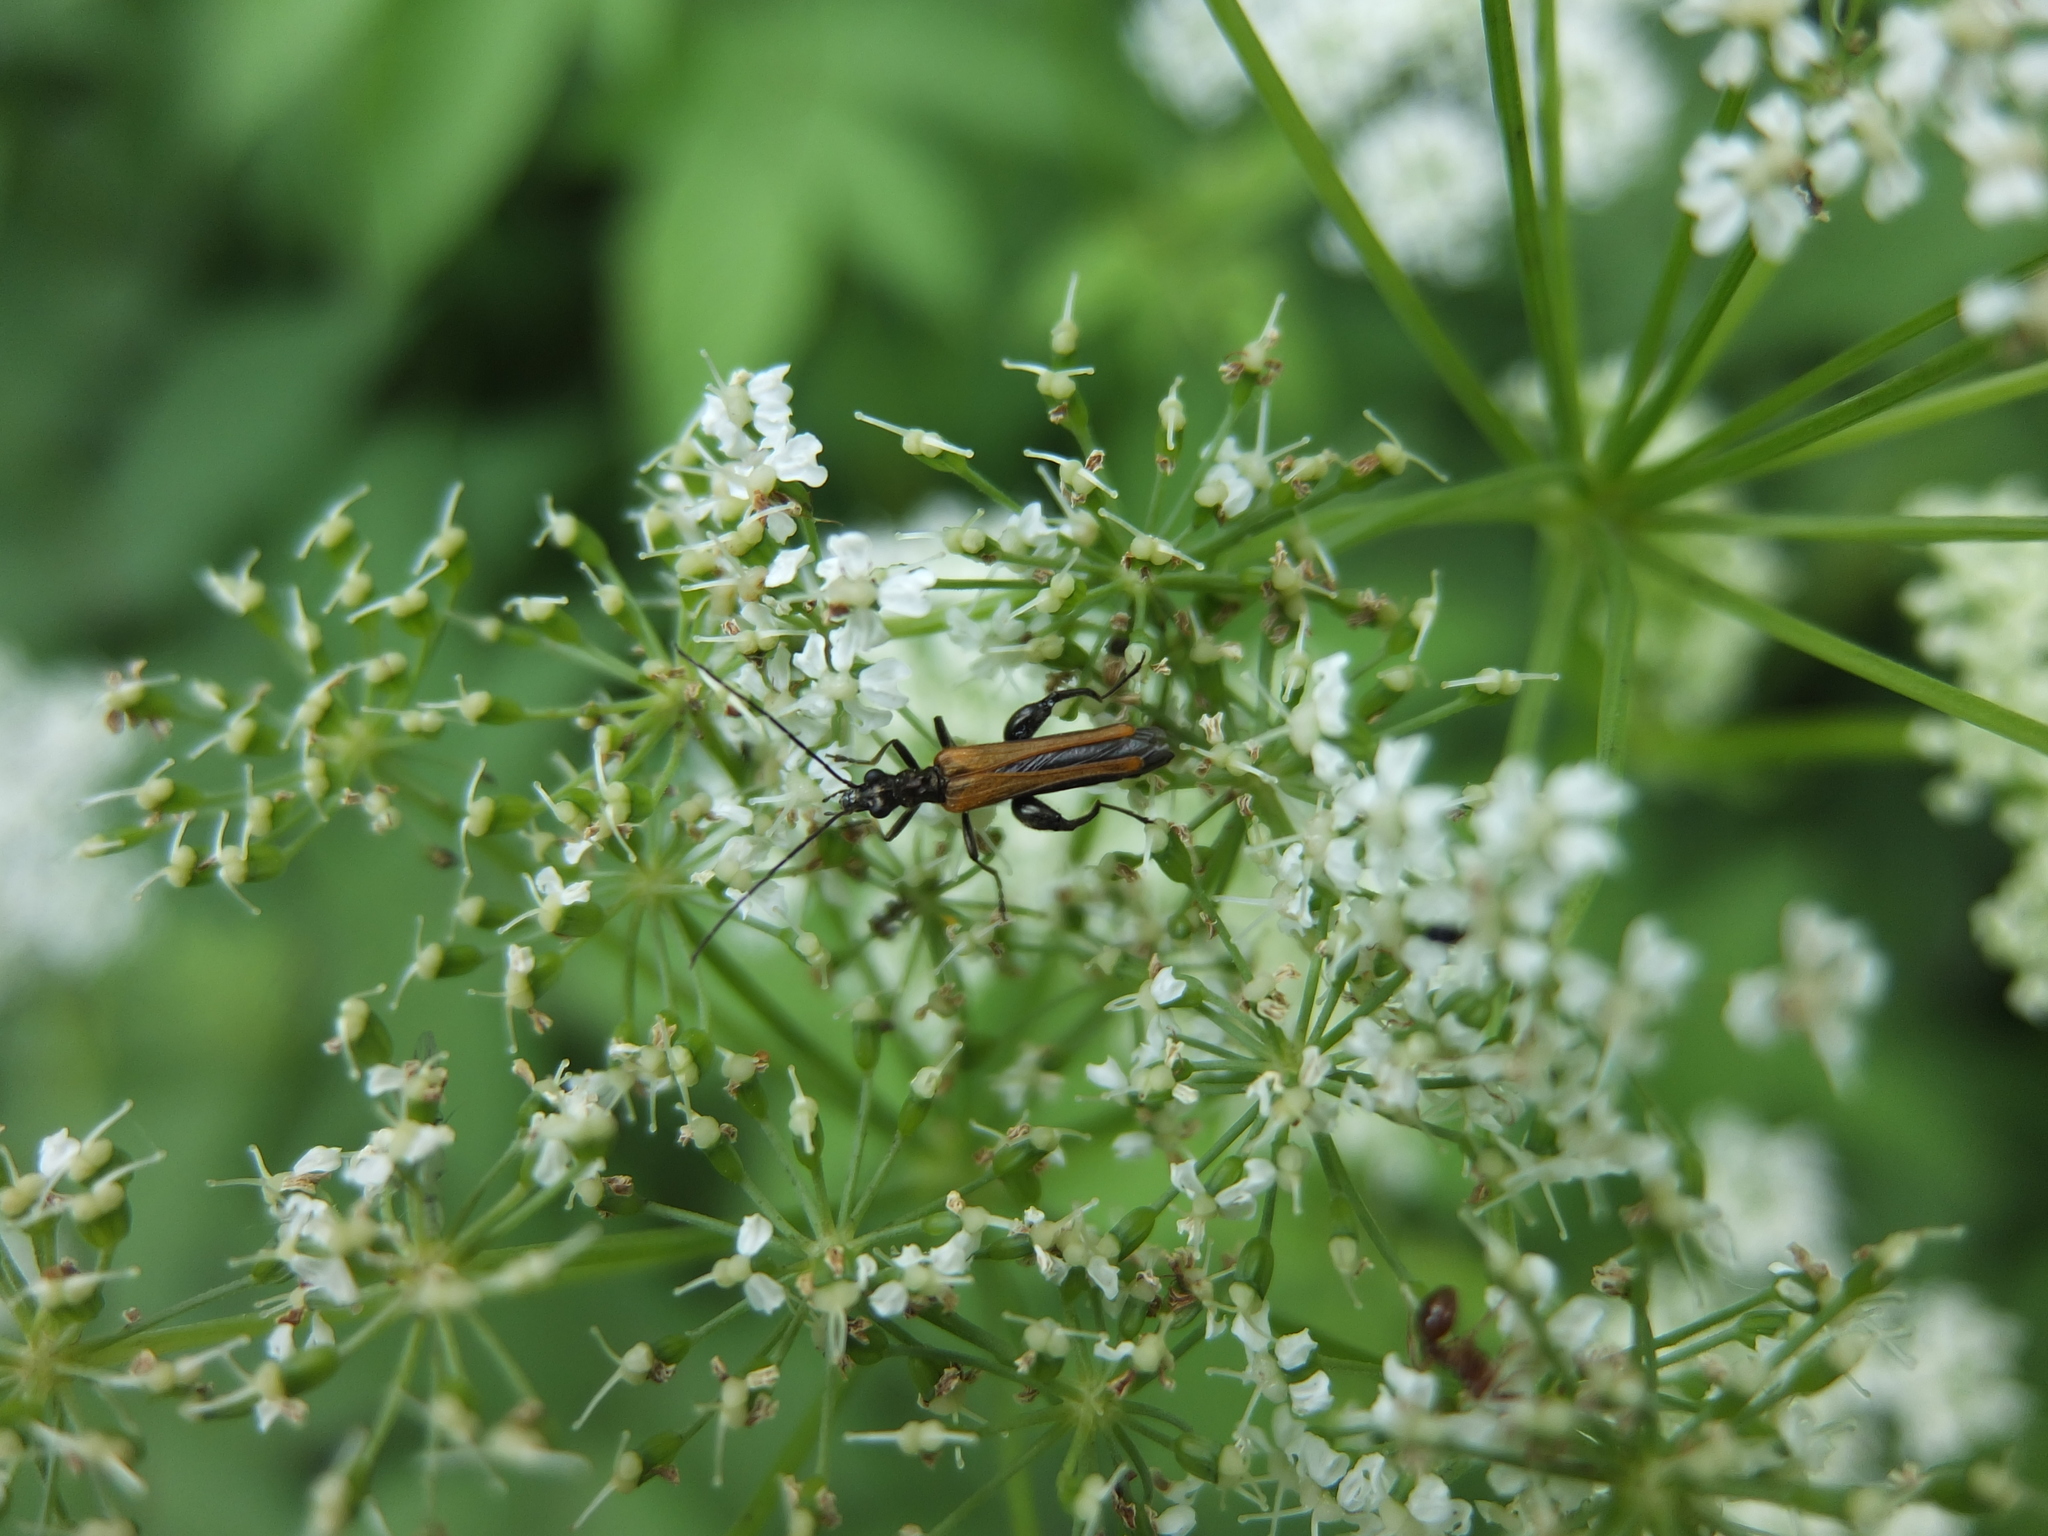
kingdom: Animalia
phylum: Arthropoda
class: Insecta
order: Coleoptera
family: Oedemeridae
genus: Oedemera
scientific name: Oedemera femorata
